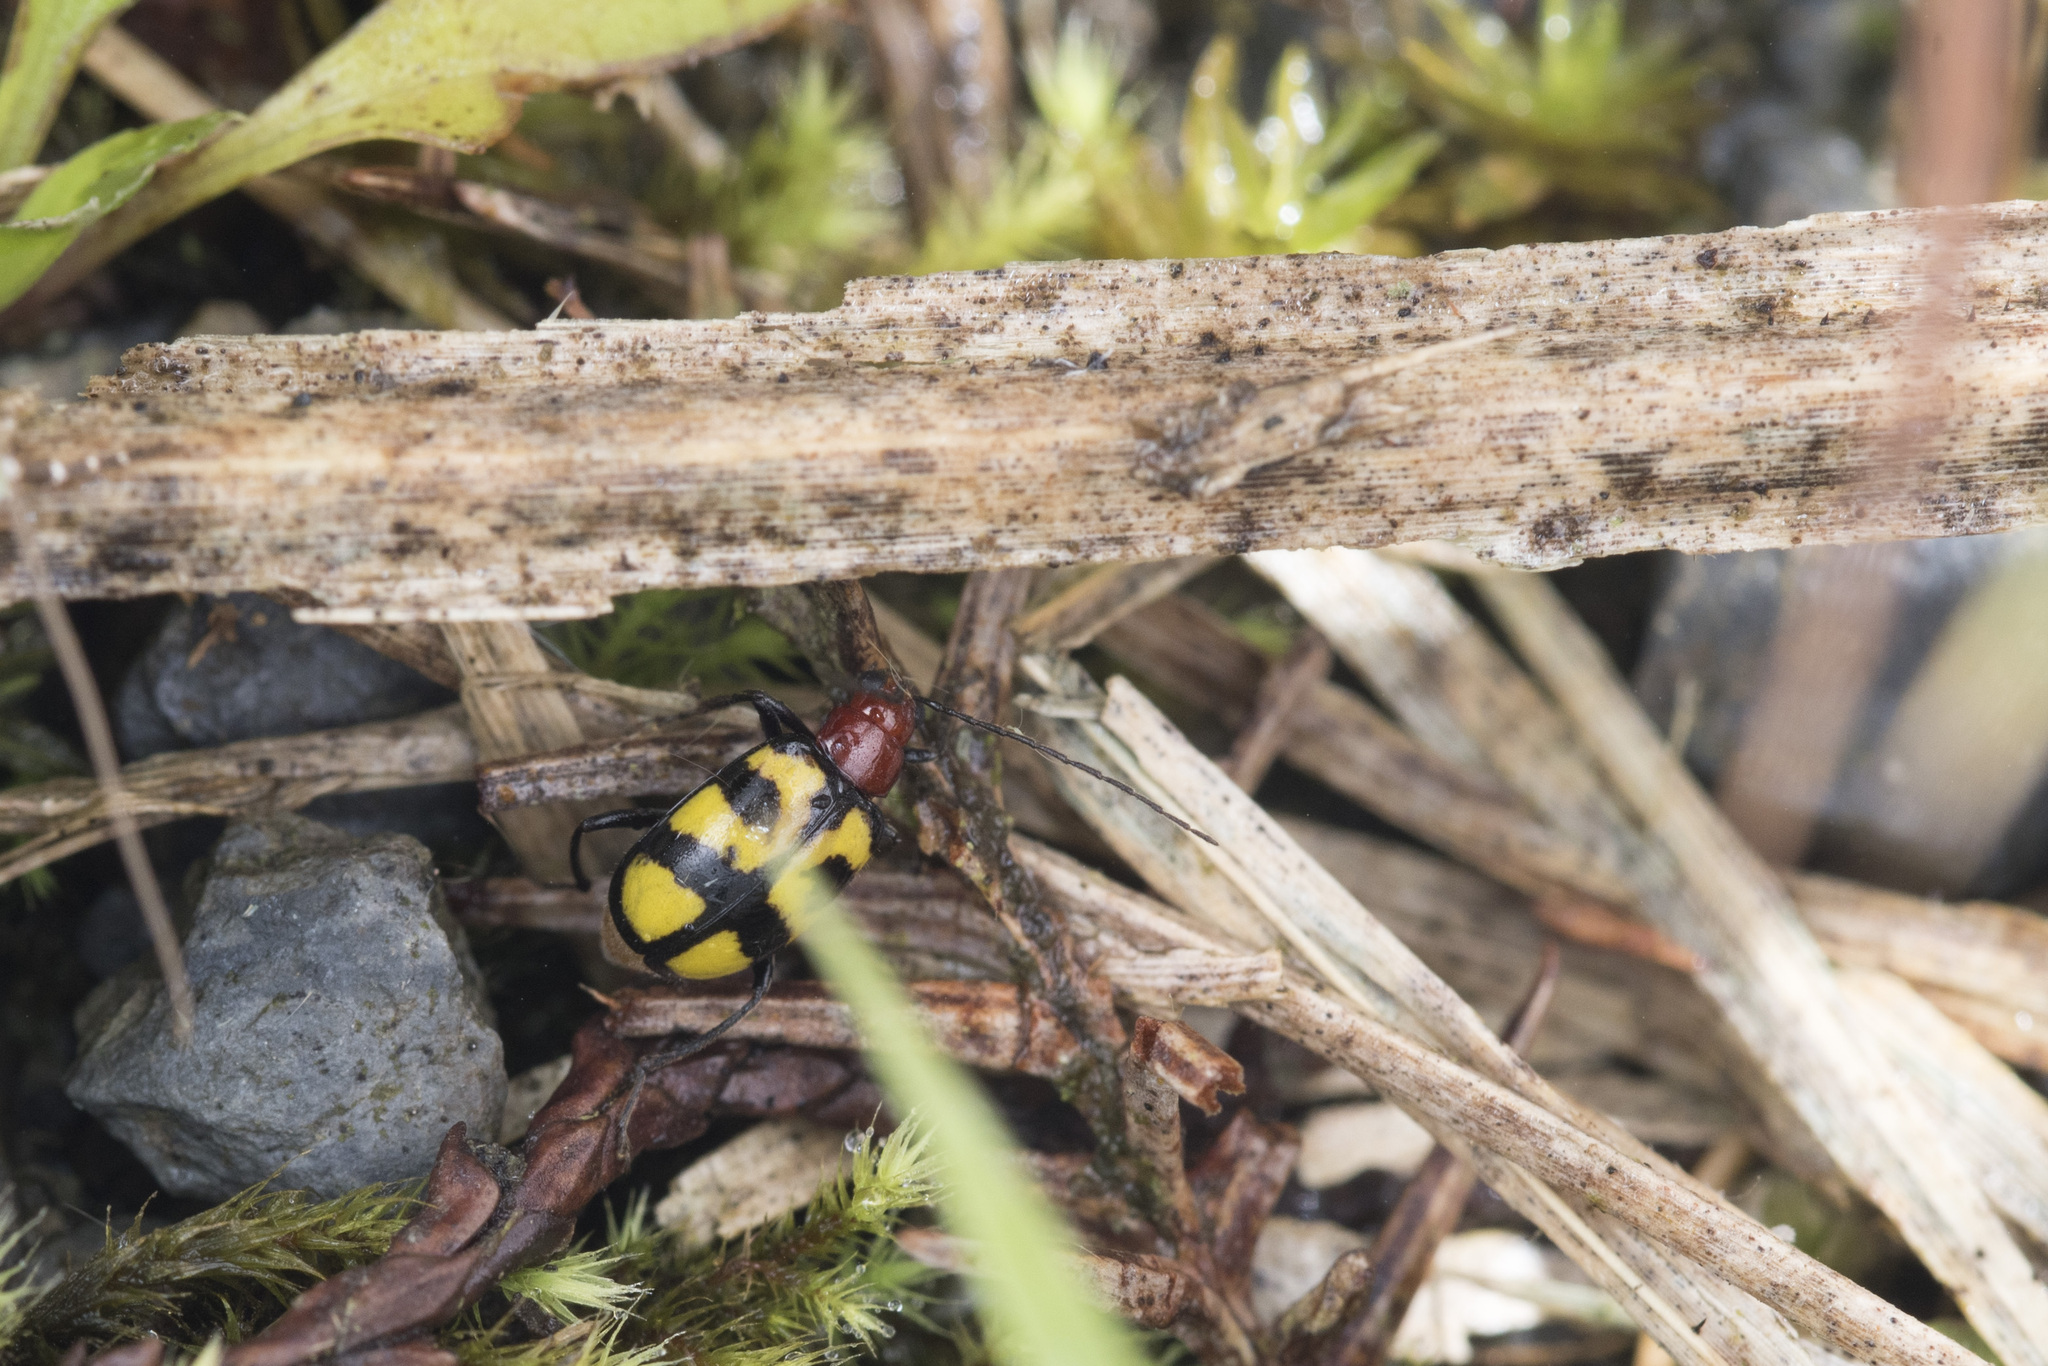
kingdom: Animalia
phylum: Arthropoda
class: Insecta
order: Coleoptera
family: Chrysomelidae
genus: Paleosepharia
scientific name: Paleosepharia yasumatsui
